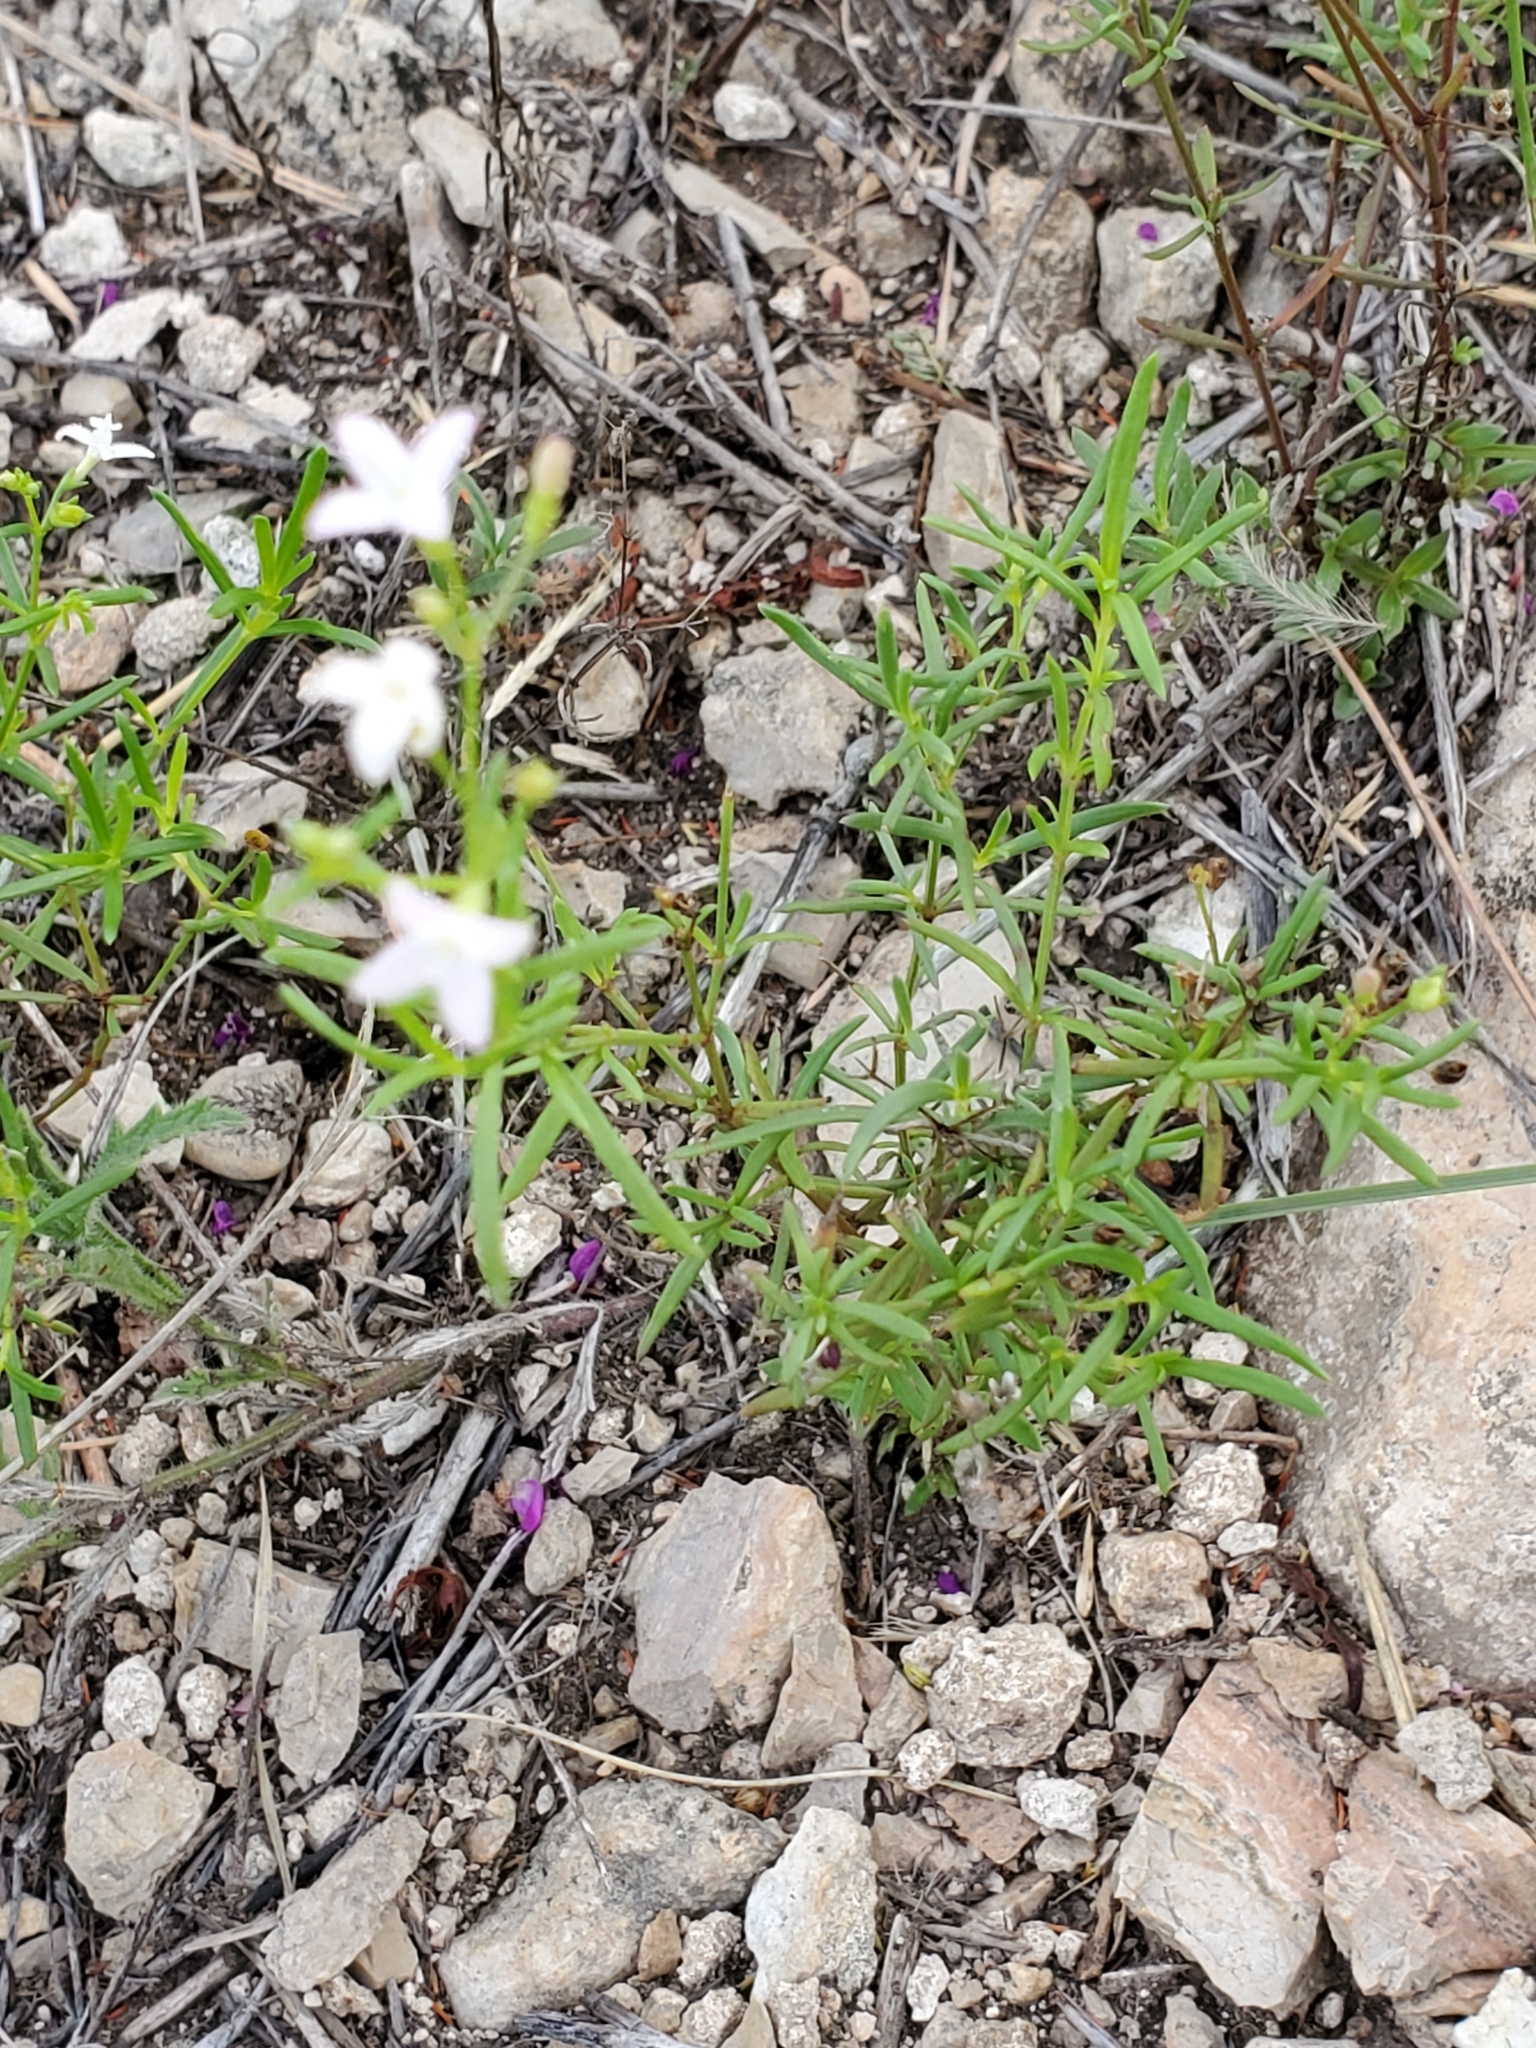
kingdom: Plantae
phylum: Tracheophyta
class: Magnoliopsida
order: Gentianales
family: Rubiaceae
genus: Stenaria
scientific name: Stenaria nigricans
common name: Diamondflowers
